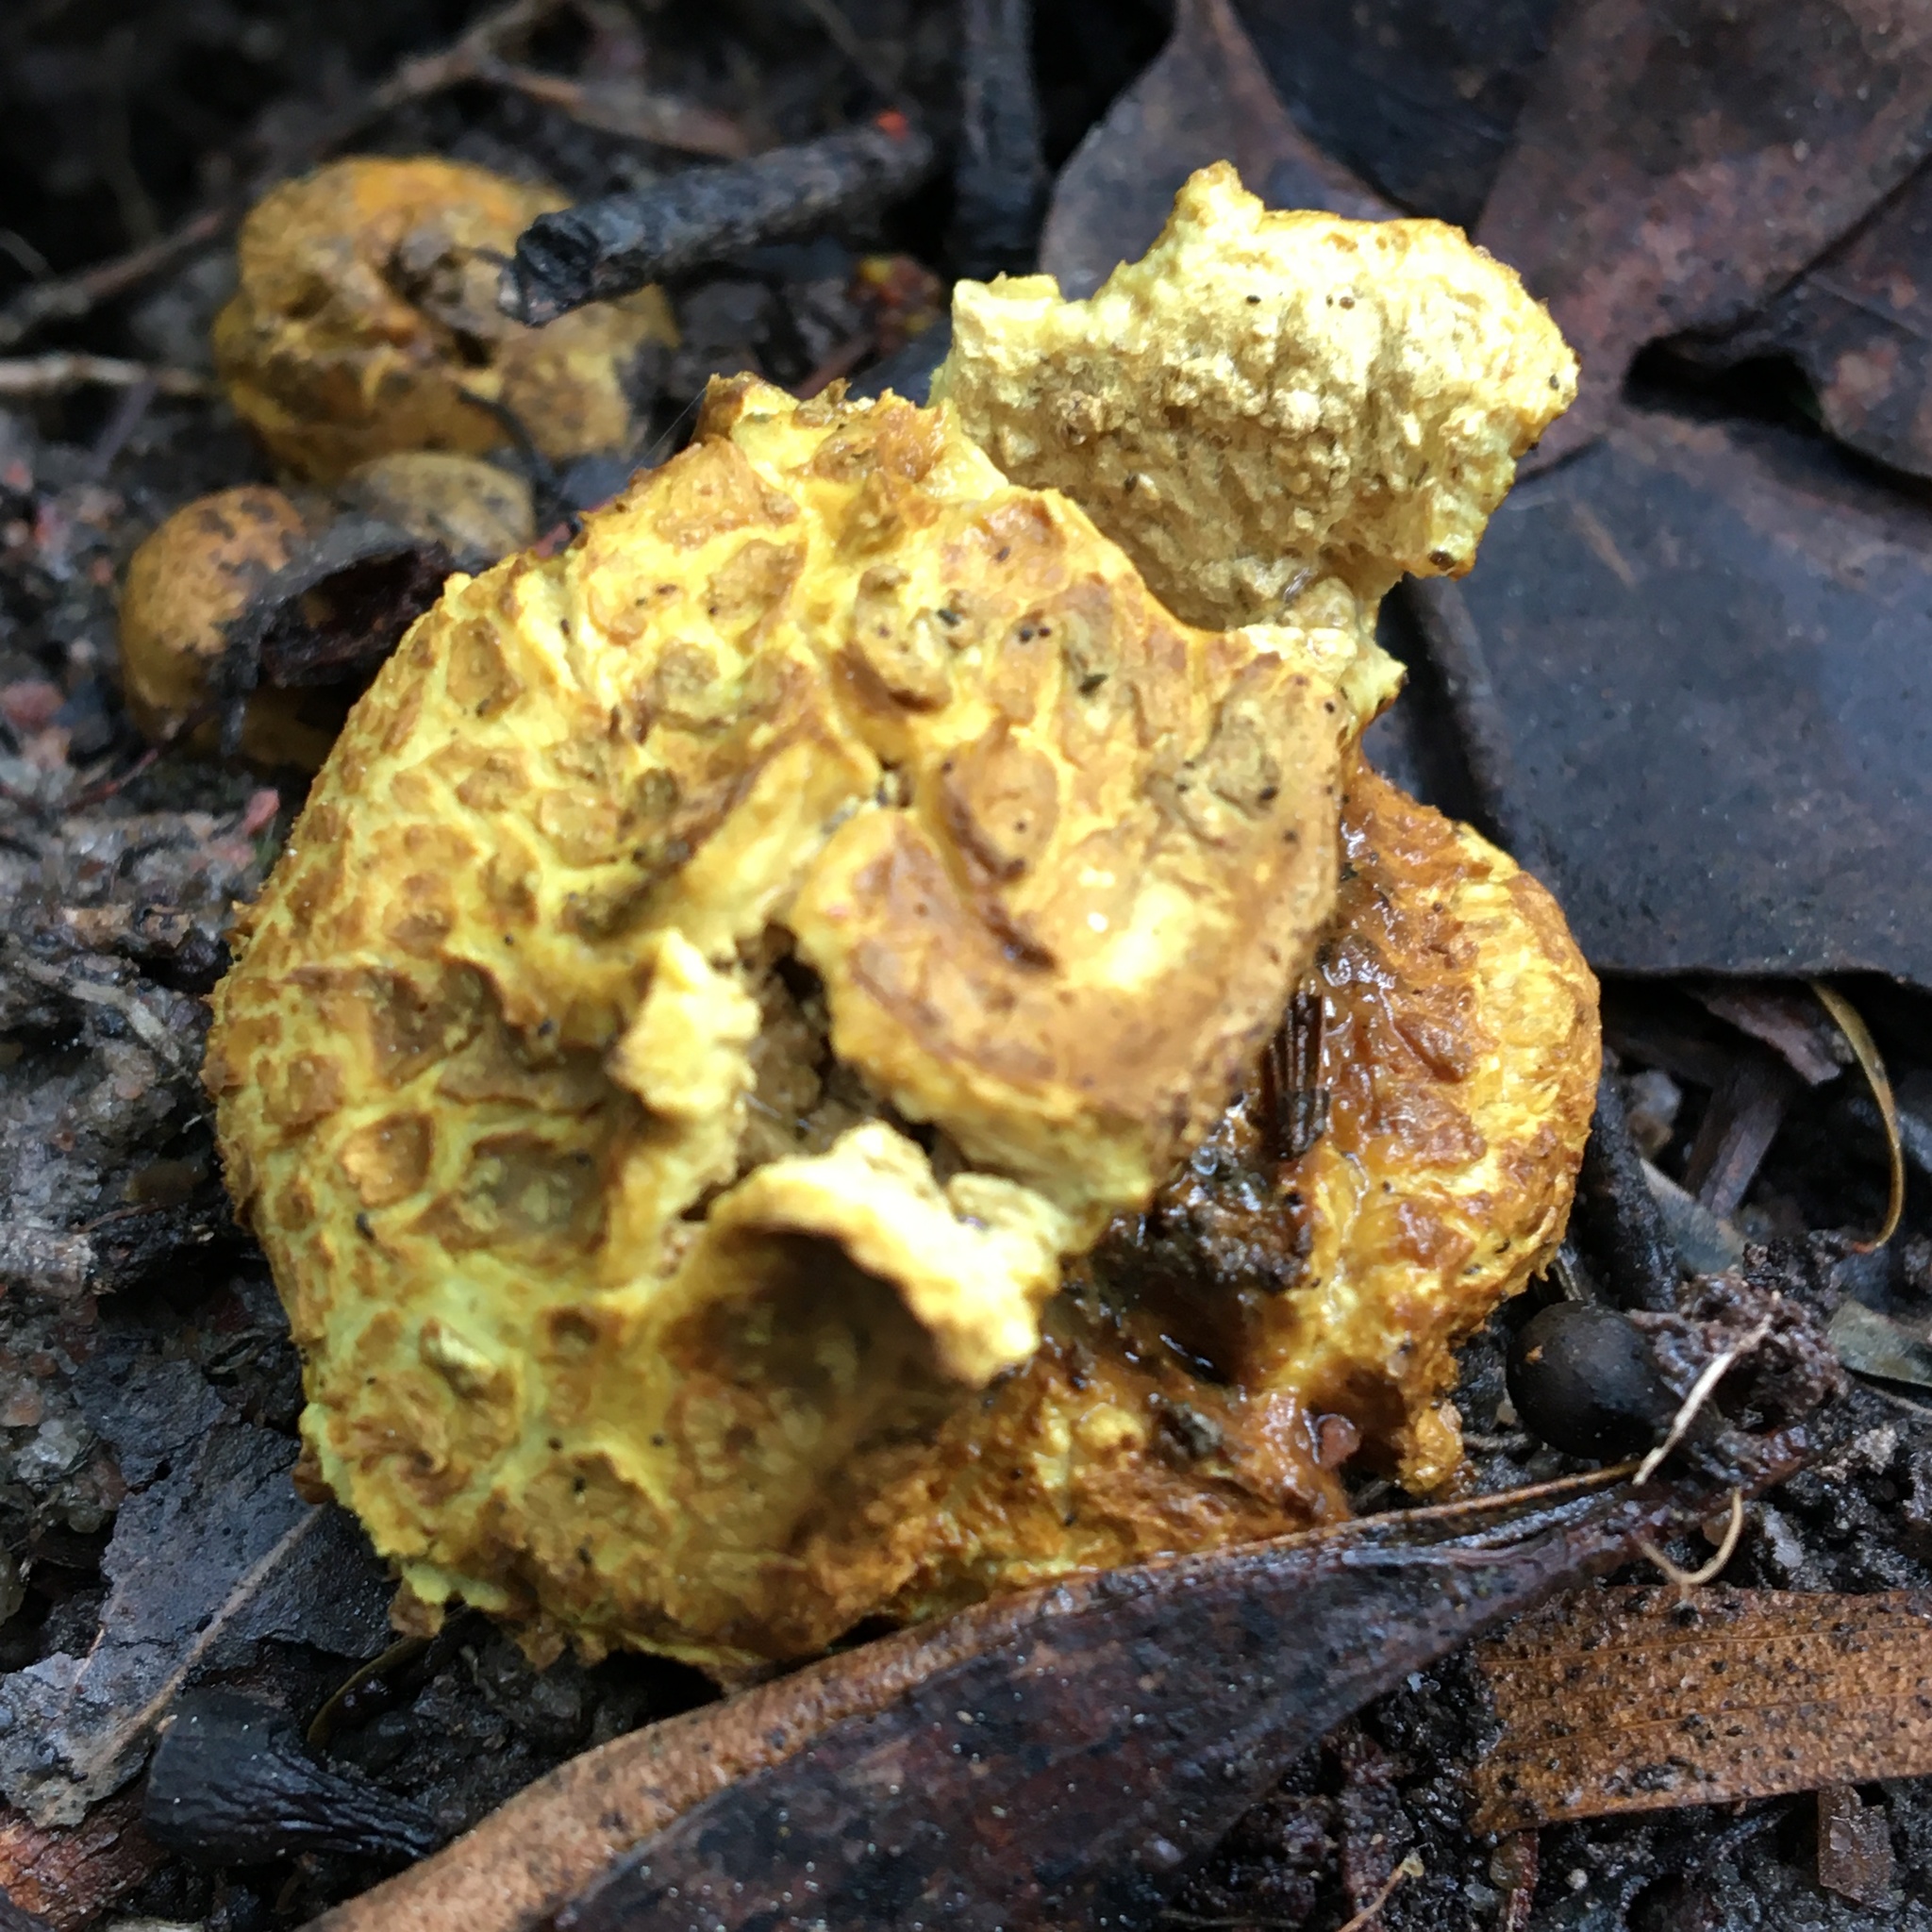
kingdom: Fungi
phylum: Basidiomycota
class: Agaricomycetes
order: Boletales
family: Sclerodermataceae
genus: Scleroderma
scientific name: Scleroderma cepa
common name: Onion earthball
